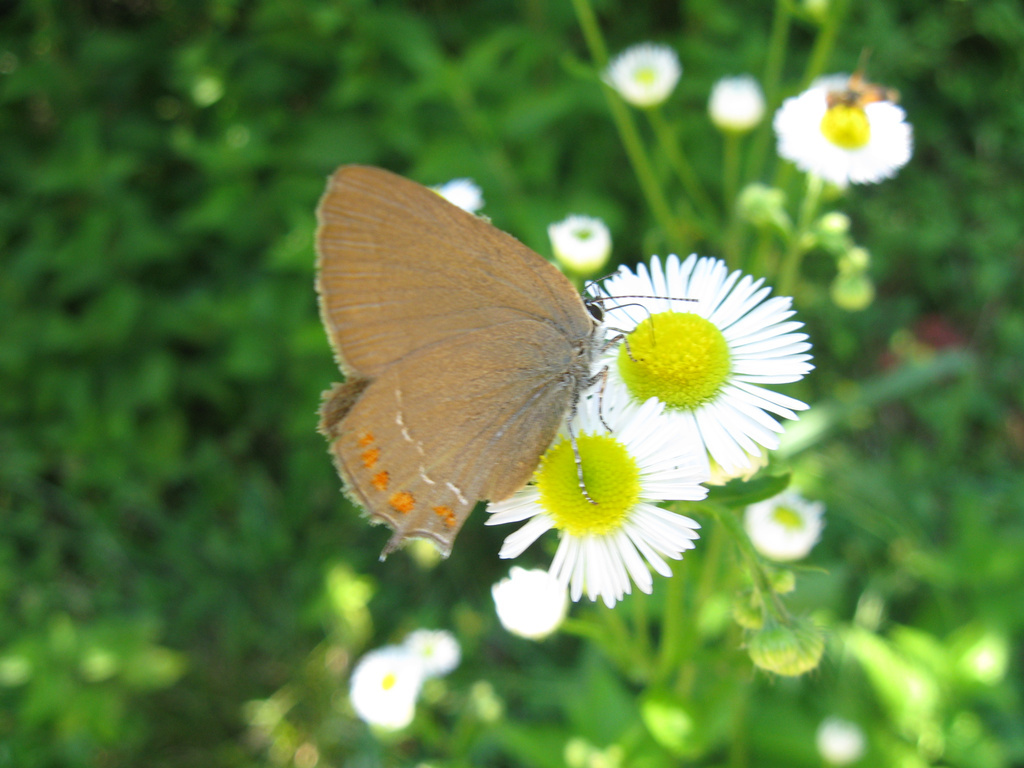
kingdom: Animalia
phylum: Arthropoda
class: Insecta
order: Lepidoptera
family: Lycaenidae
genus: Fixsenia
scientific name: Fixsenia esculi
